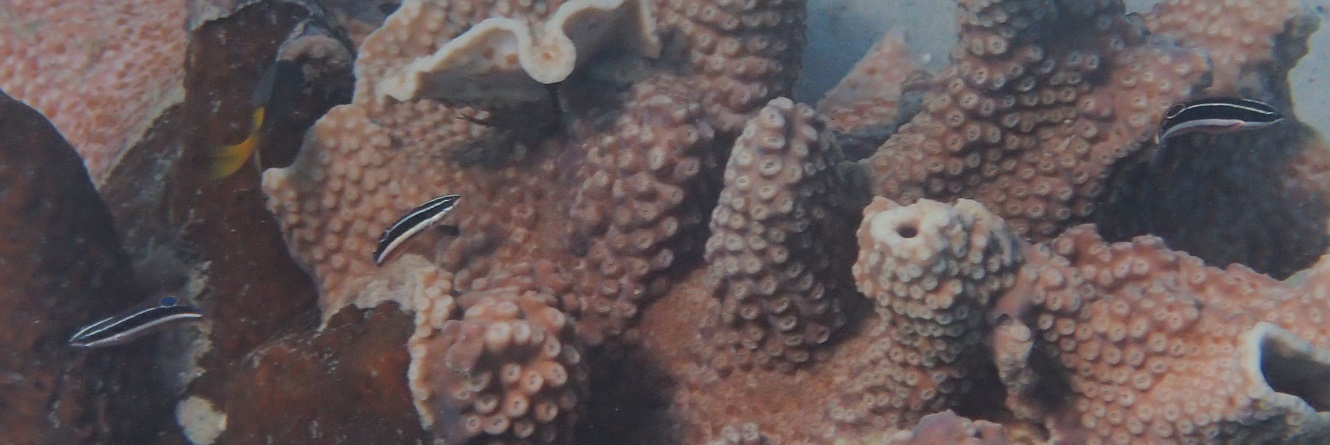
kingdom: Animalia
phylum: Chordata
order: Perciformes
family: Labridae
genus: Coris
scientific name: Coris pictoides
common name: Blackstripe coris
